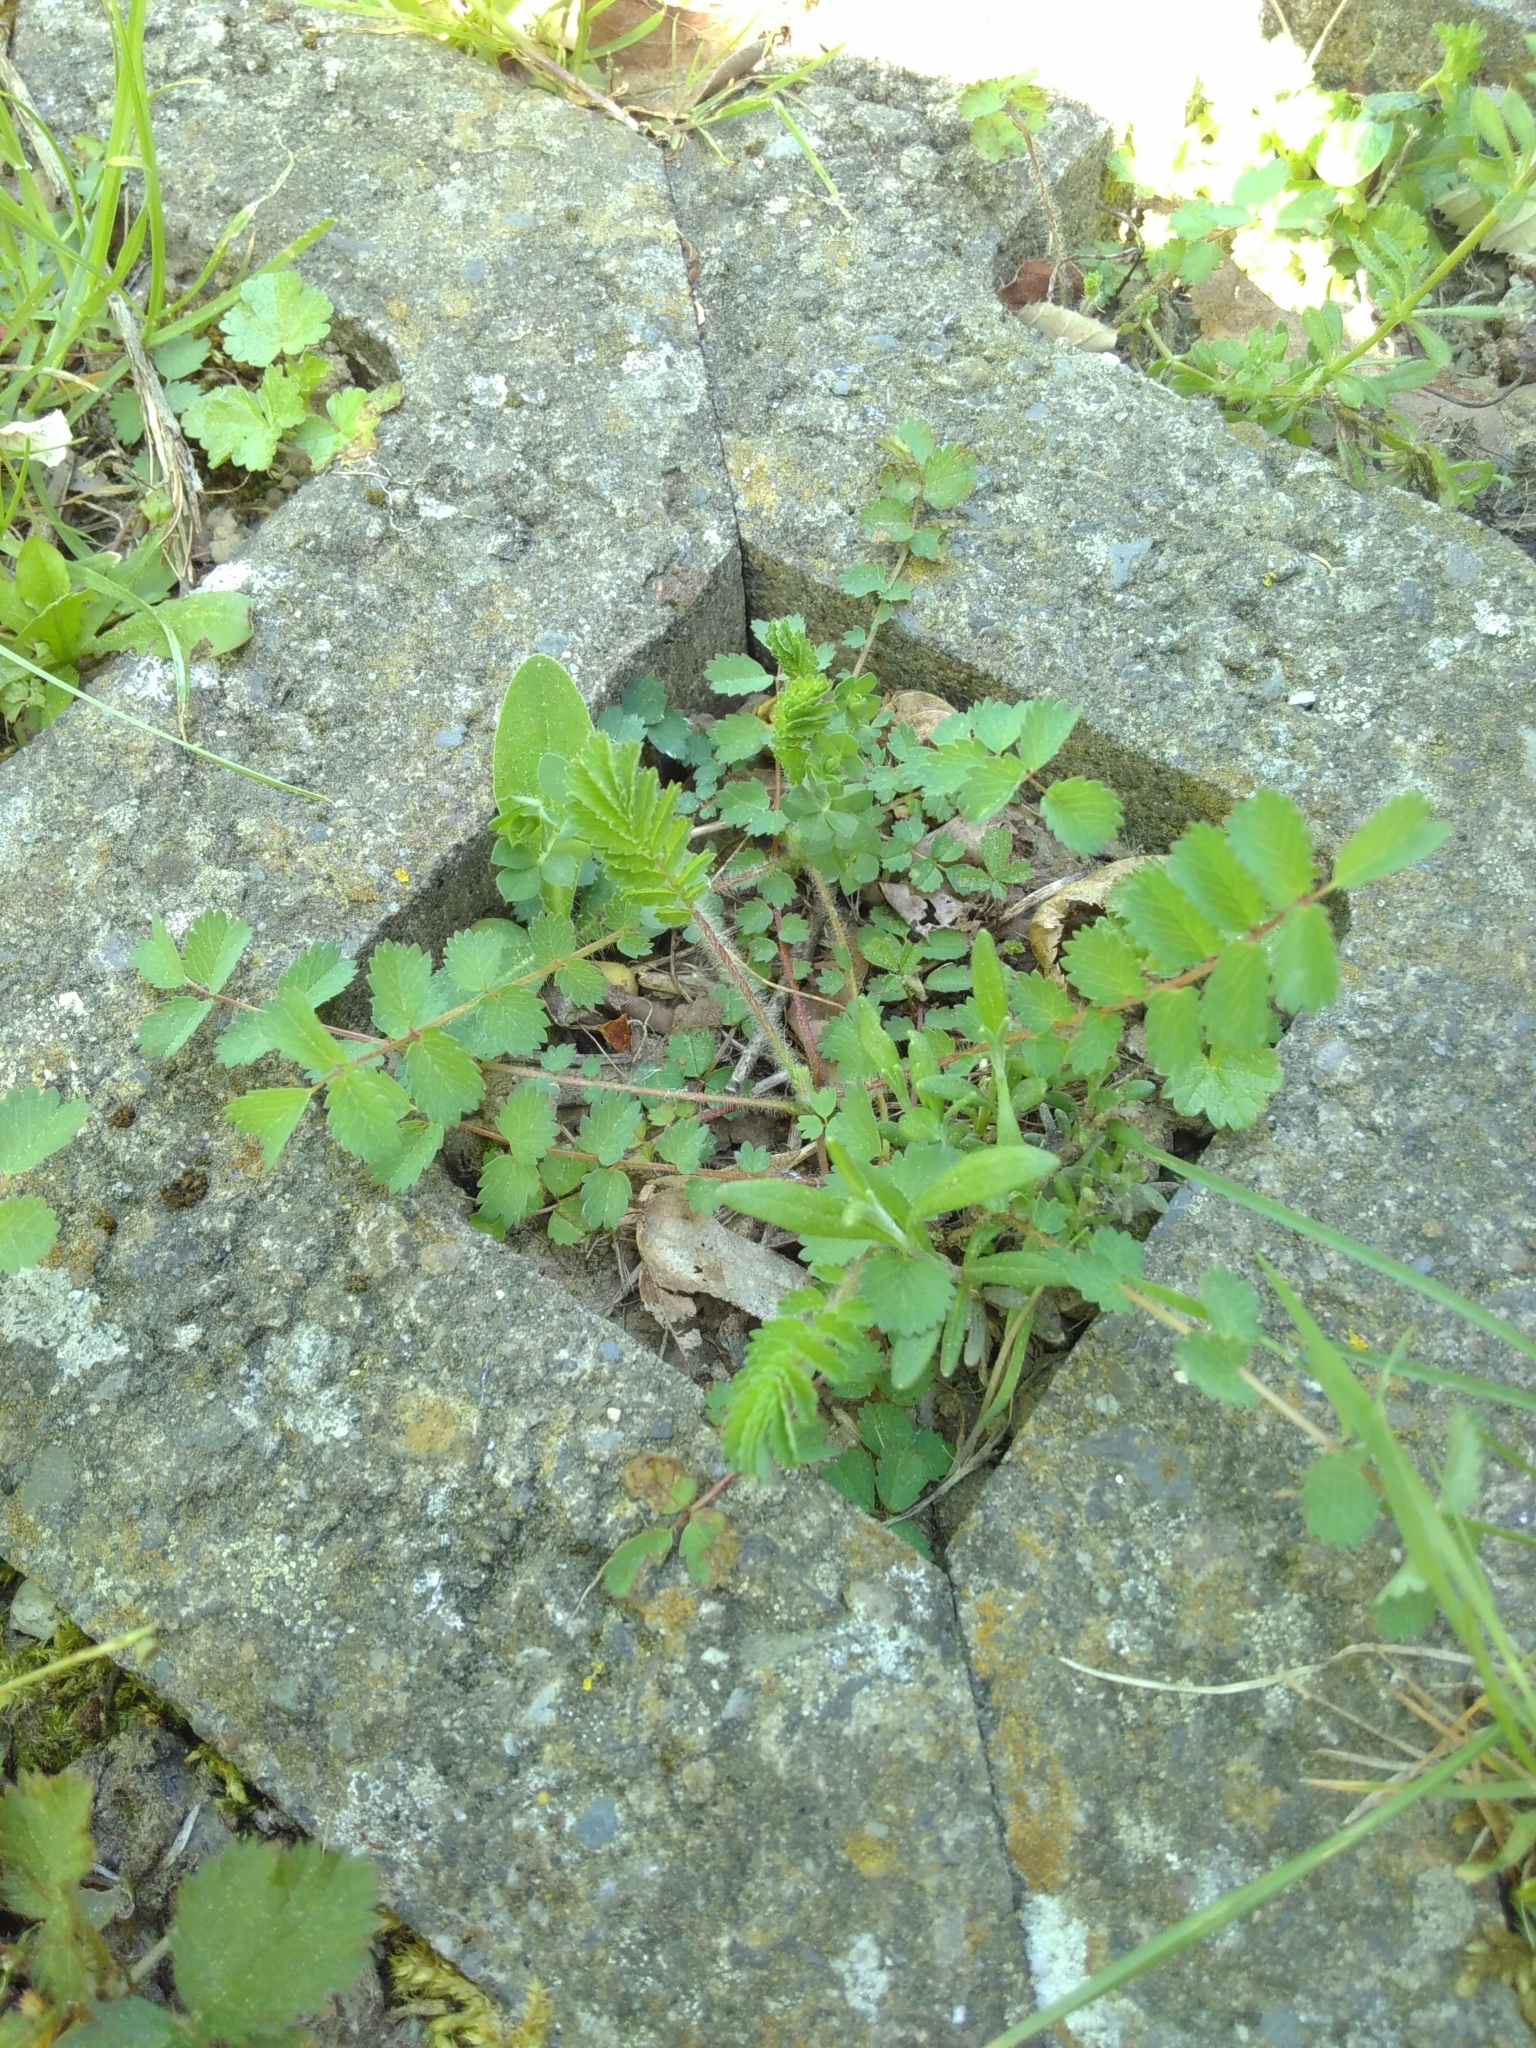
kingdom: Plantae
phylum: Tracheophyta
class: Magnoliopsida
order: Rosales
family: Rosaceae
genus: Poterium
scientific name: Poterium sanguisorba
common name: Salad burnet
